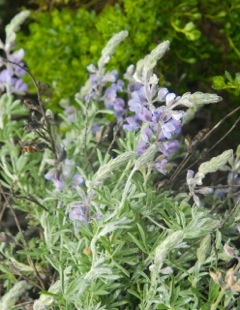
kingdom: Plantae
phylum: Tracheophyta
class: Magnoliopsida
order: Fabales
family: Fabaceae
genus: Lupinus
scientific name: Lupinus chamissonis
